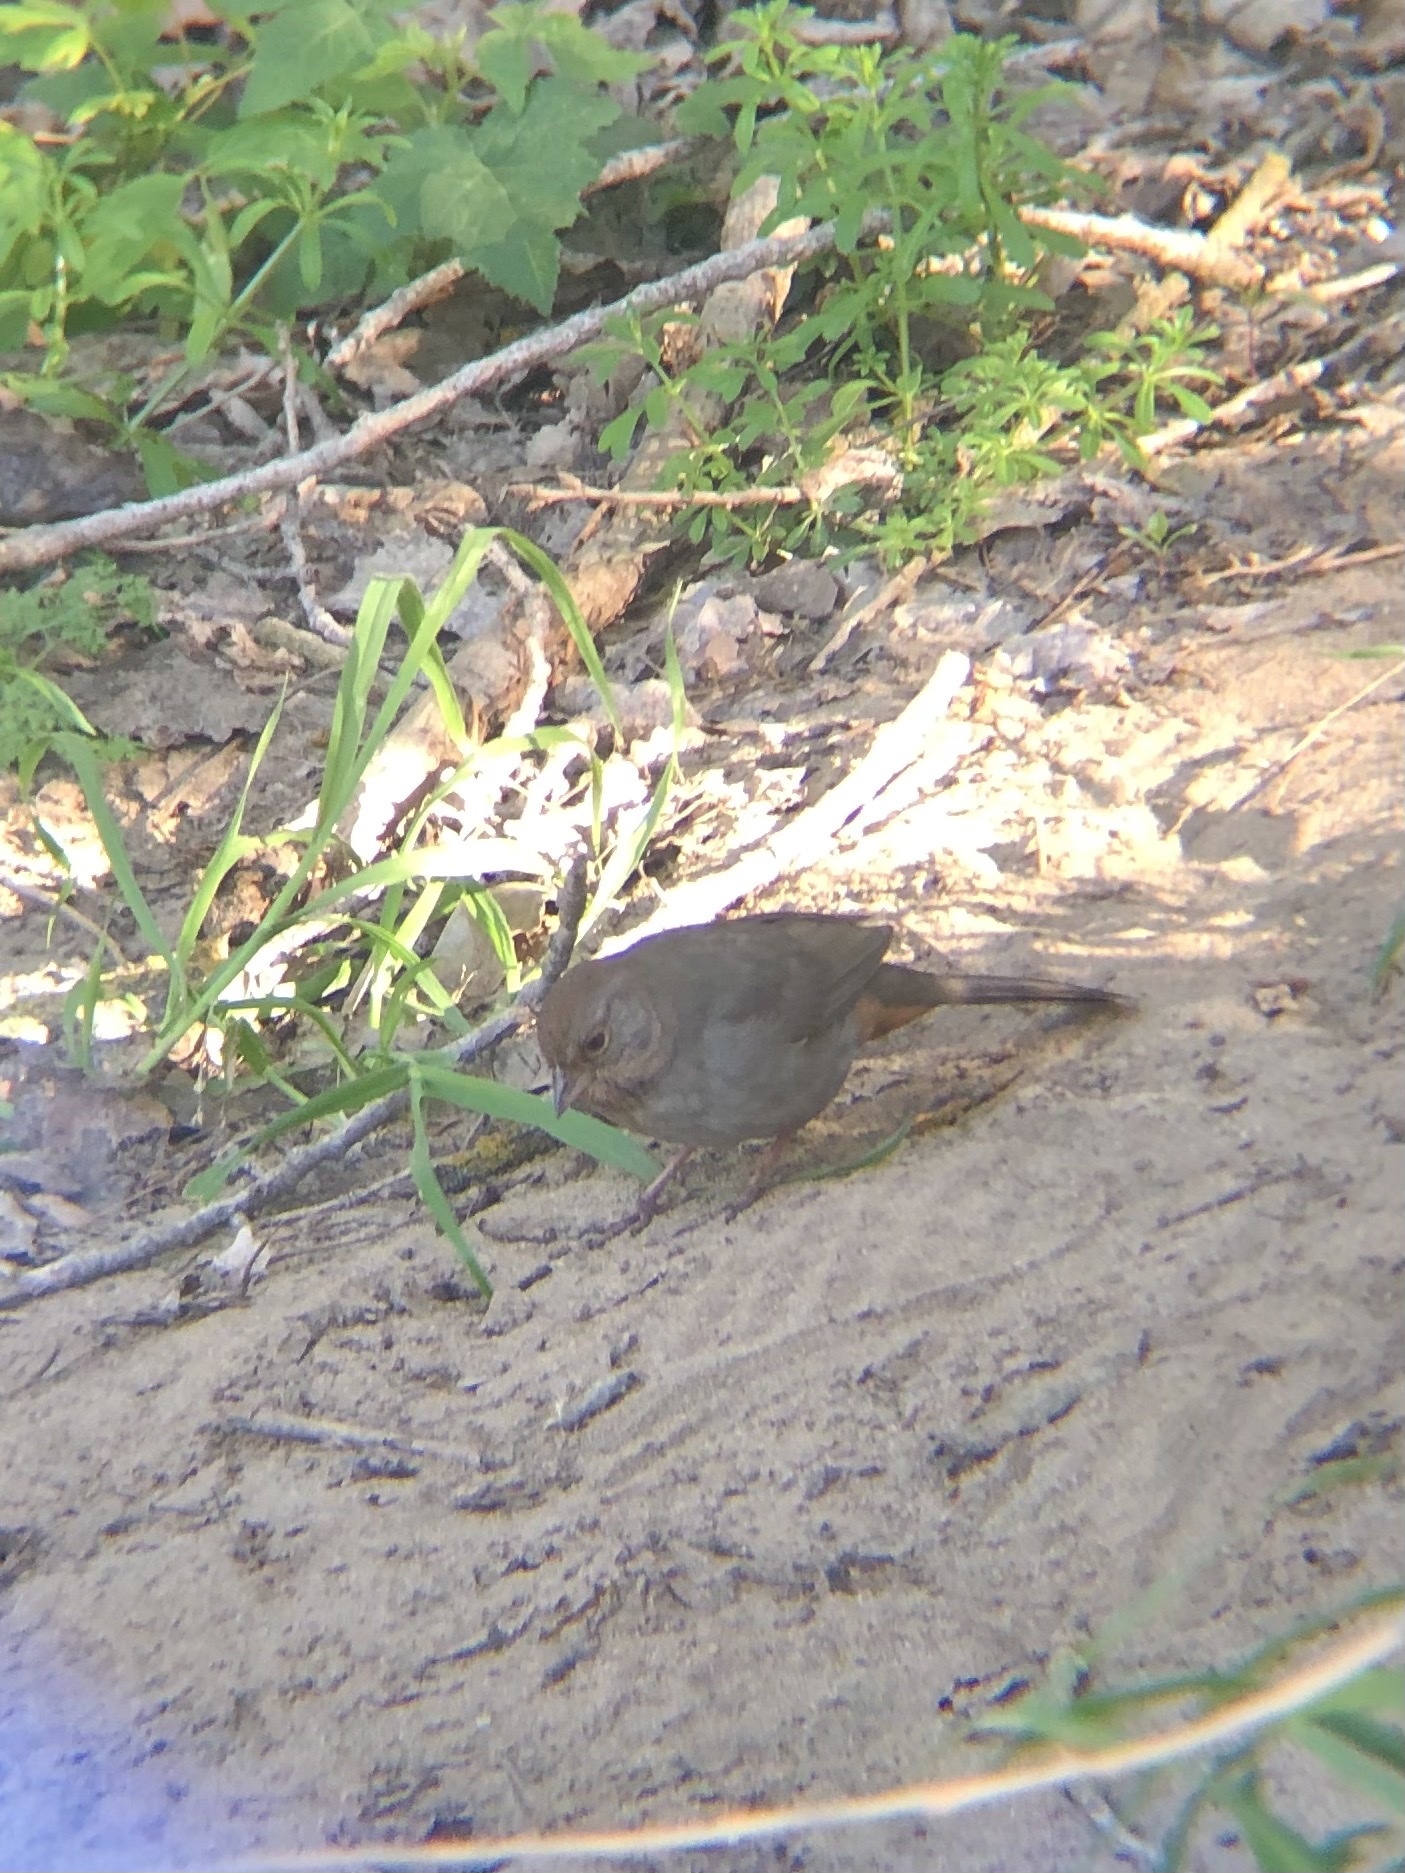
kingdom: Animalia
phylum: Chordata
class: Aves
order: Passeriformes
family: Passerellidae
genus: Melozone
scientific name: Melozone crissalis
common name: California towhee
